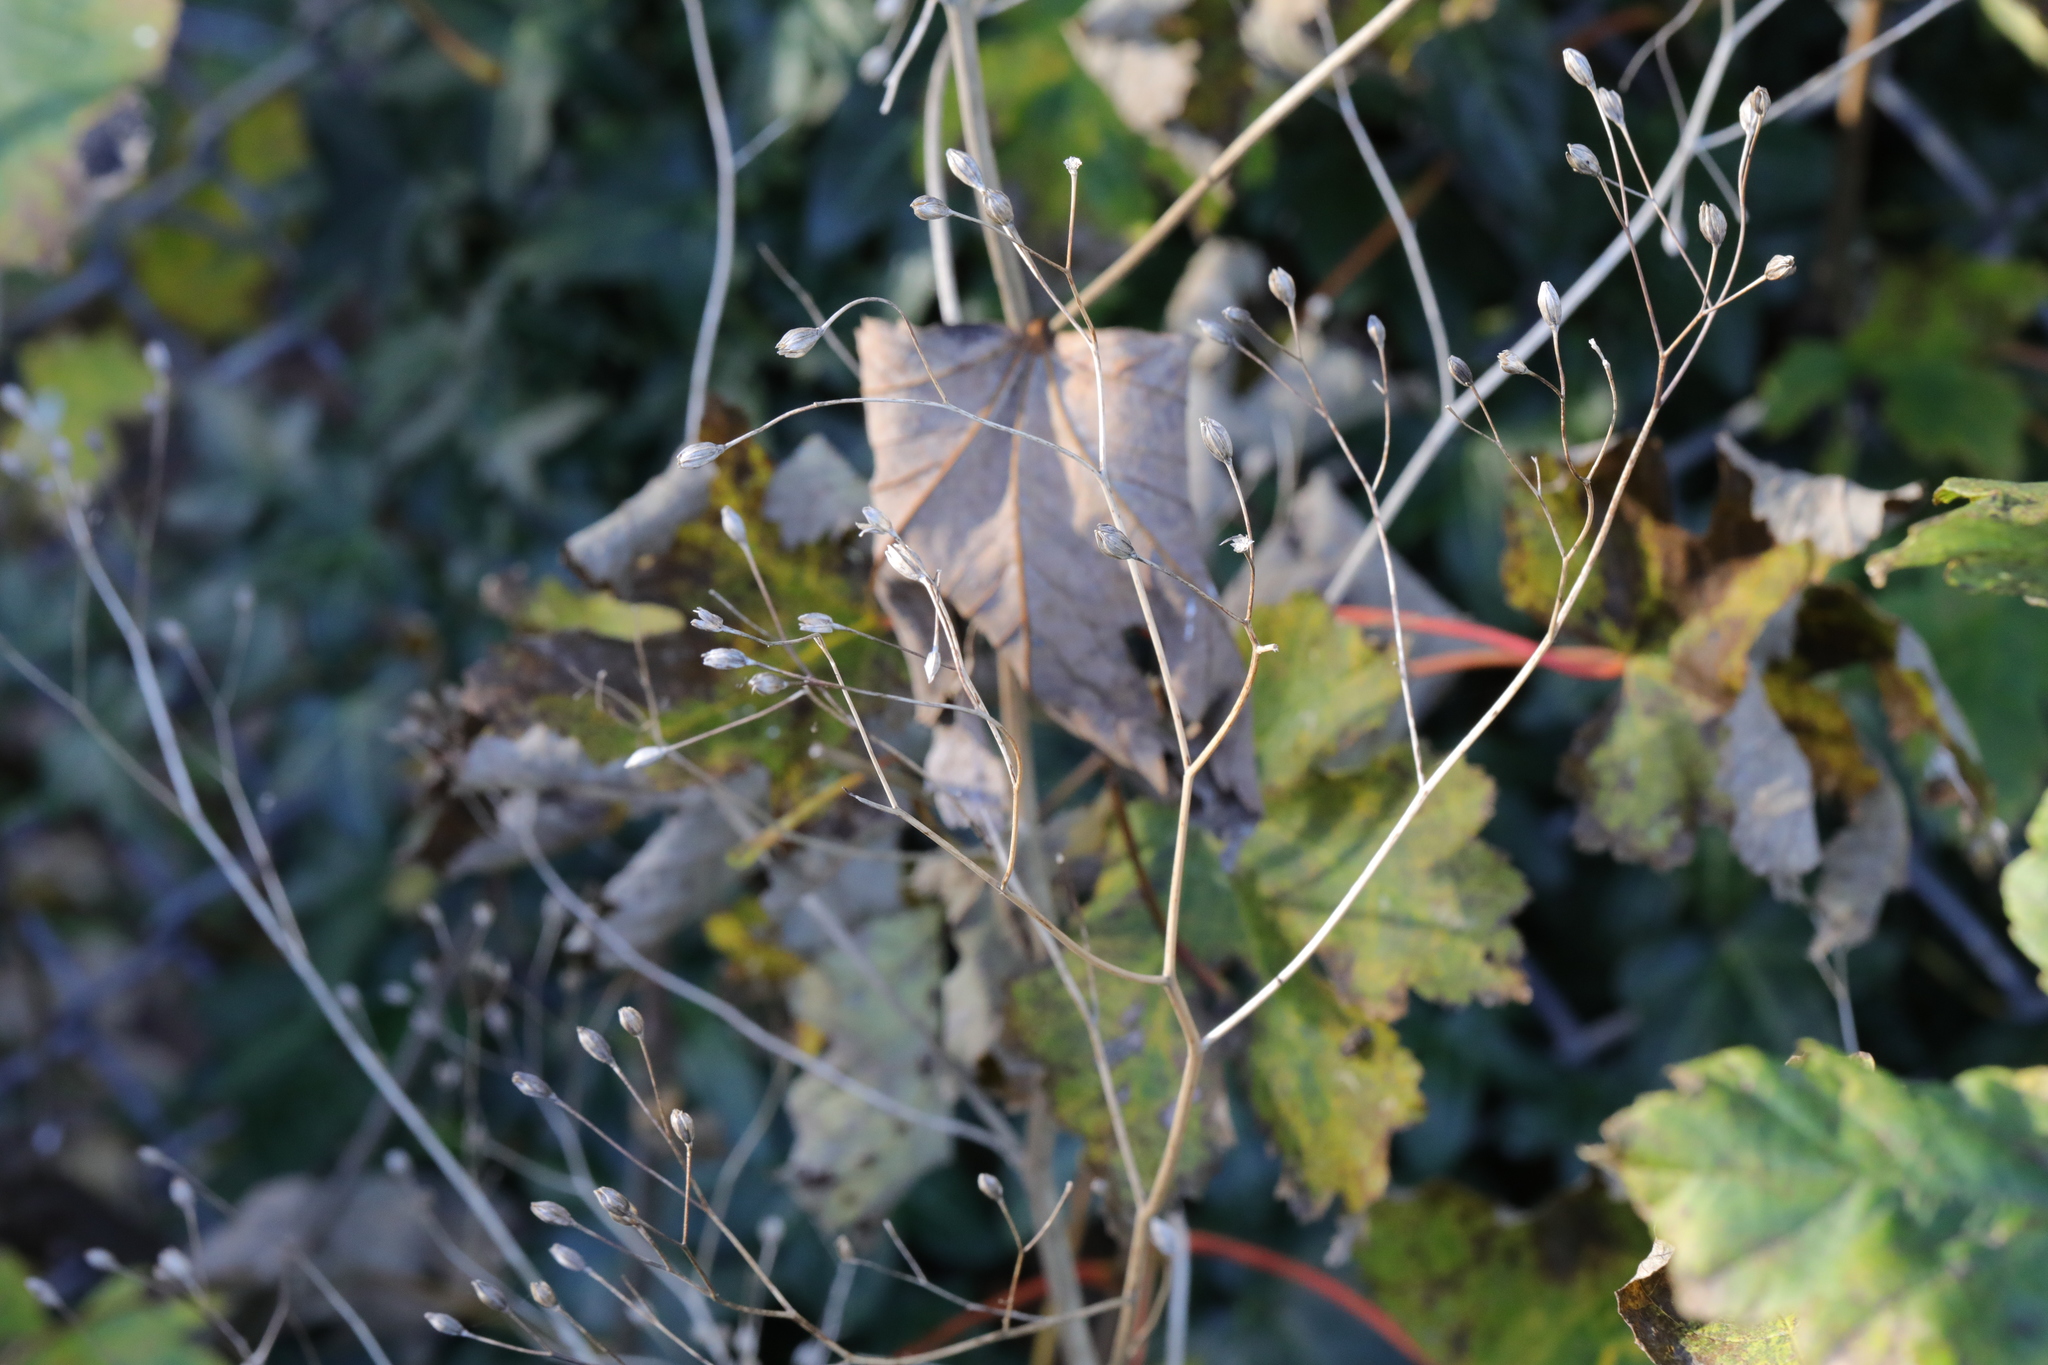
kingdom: Plantae
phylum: Tracheophyta
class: Magnoliopsida
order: Asterales
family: Asteraceae
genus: Lapsana
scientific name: Lapsana communis
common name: Nipplewort
